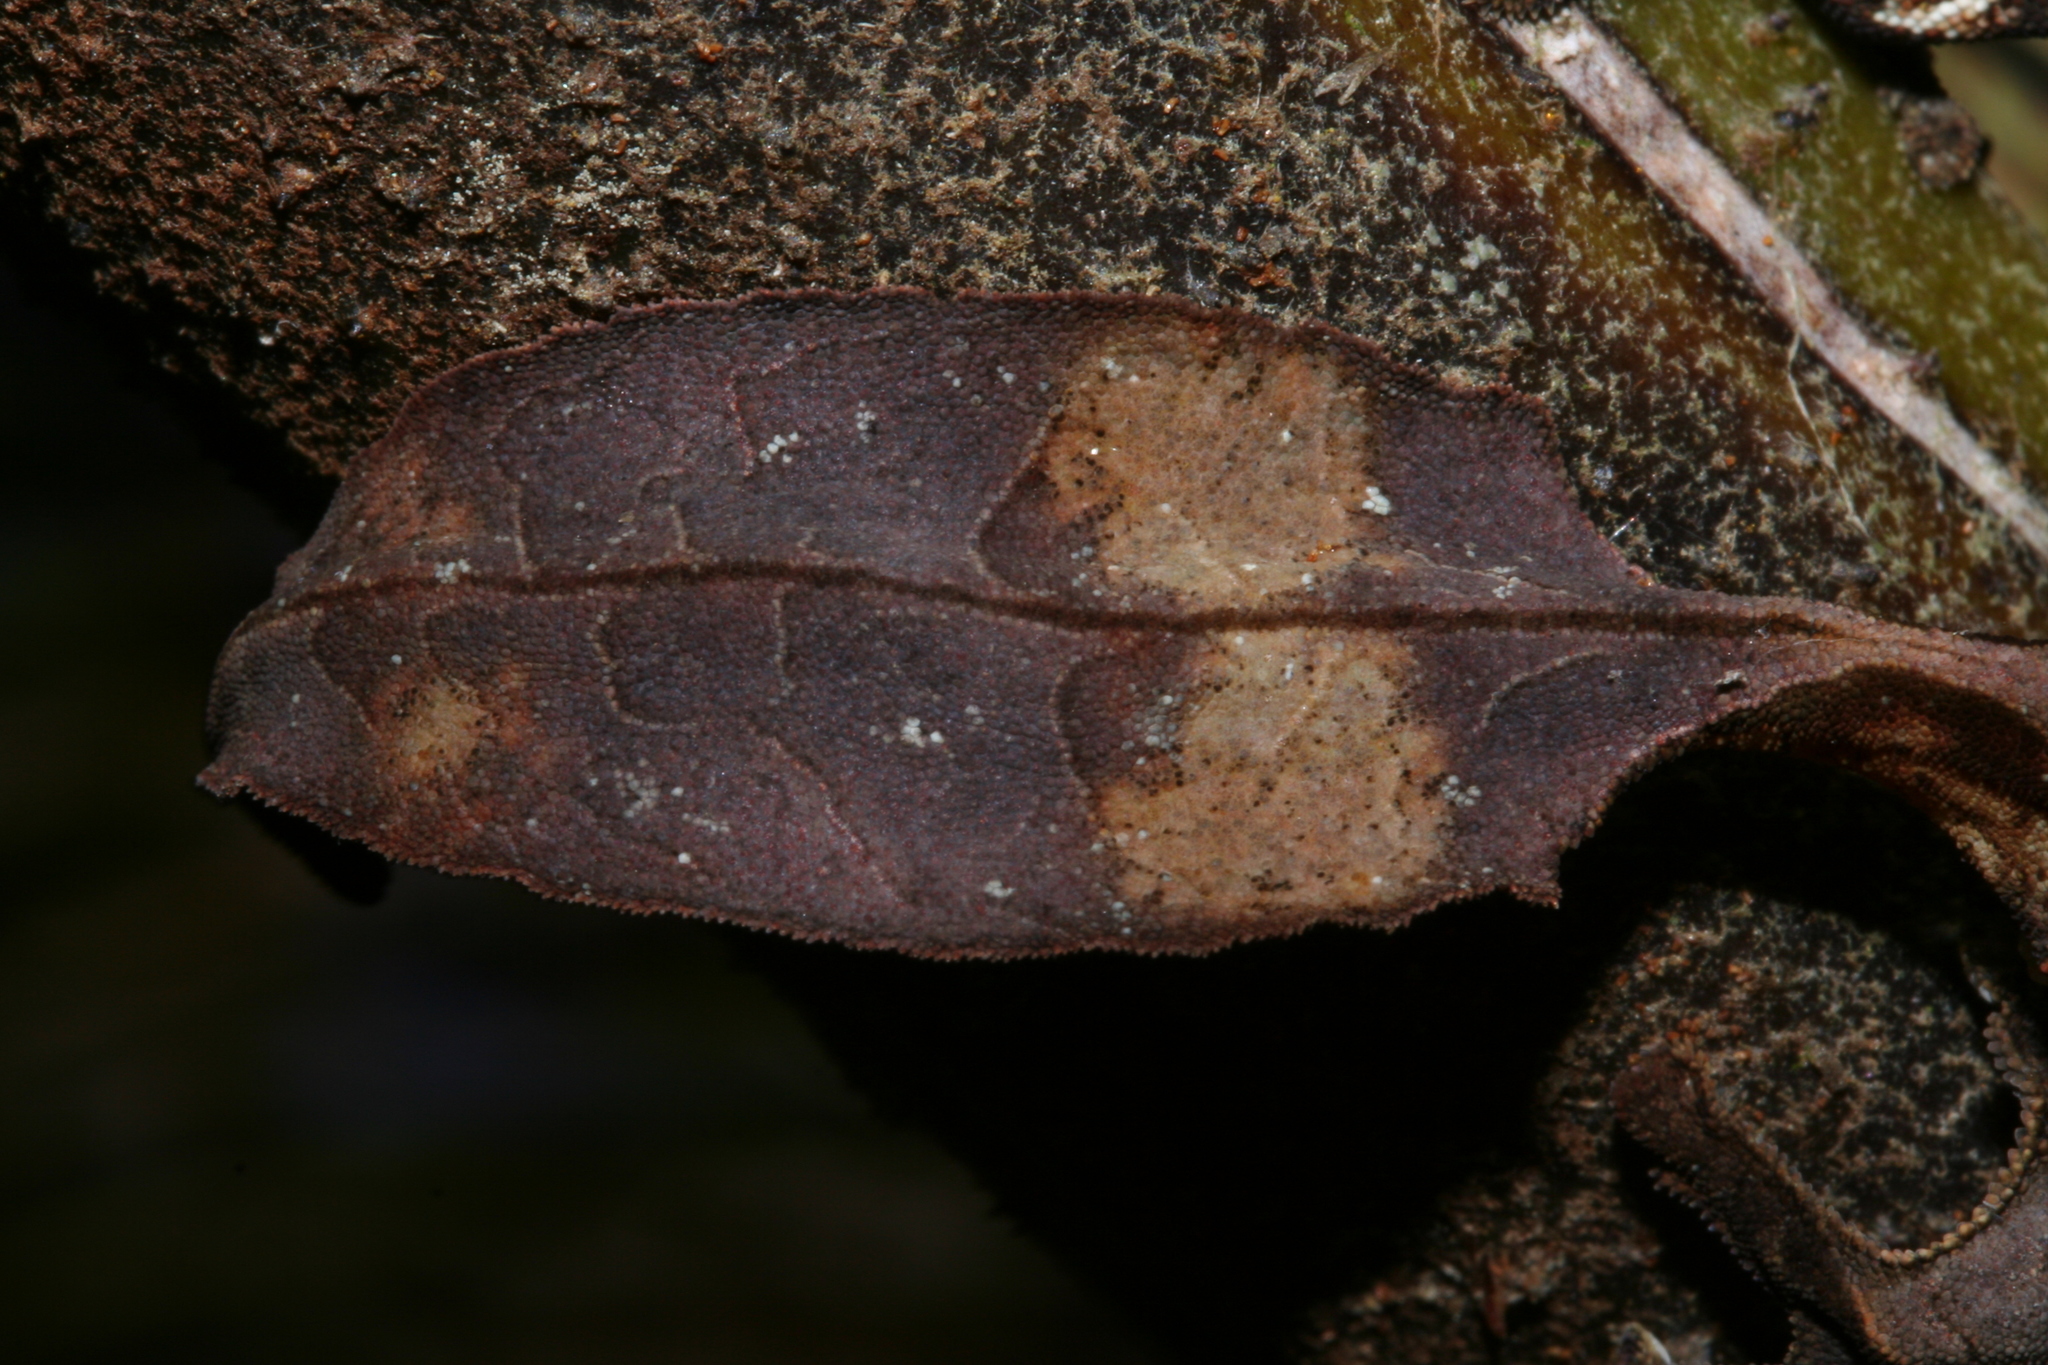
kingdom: Animalia
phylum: Chordata
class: Squamata
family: Gekkonidae
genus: Uroplatus
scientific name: Uroplatus phantasticus
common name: Phantastic leaf-tailed gecko
